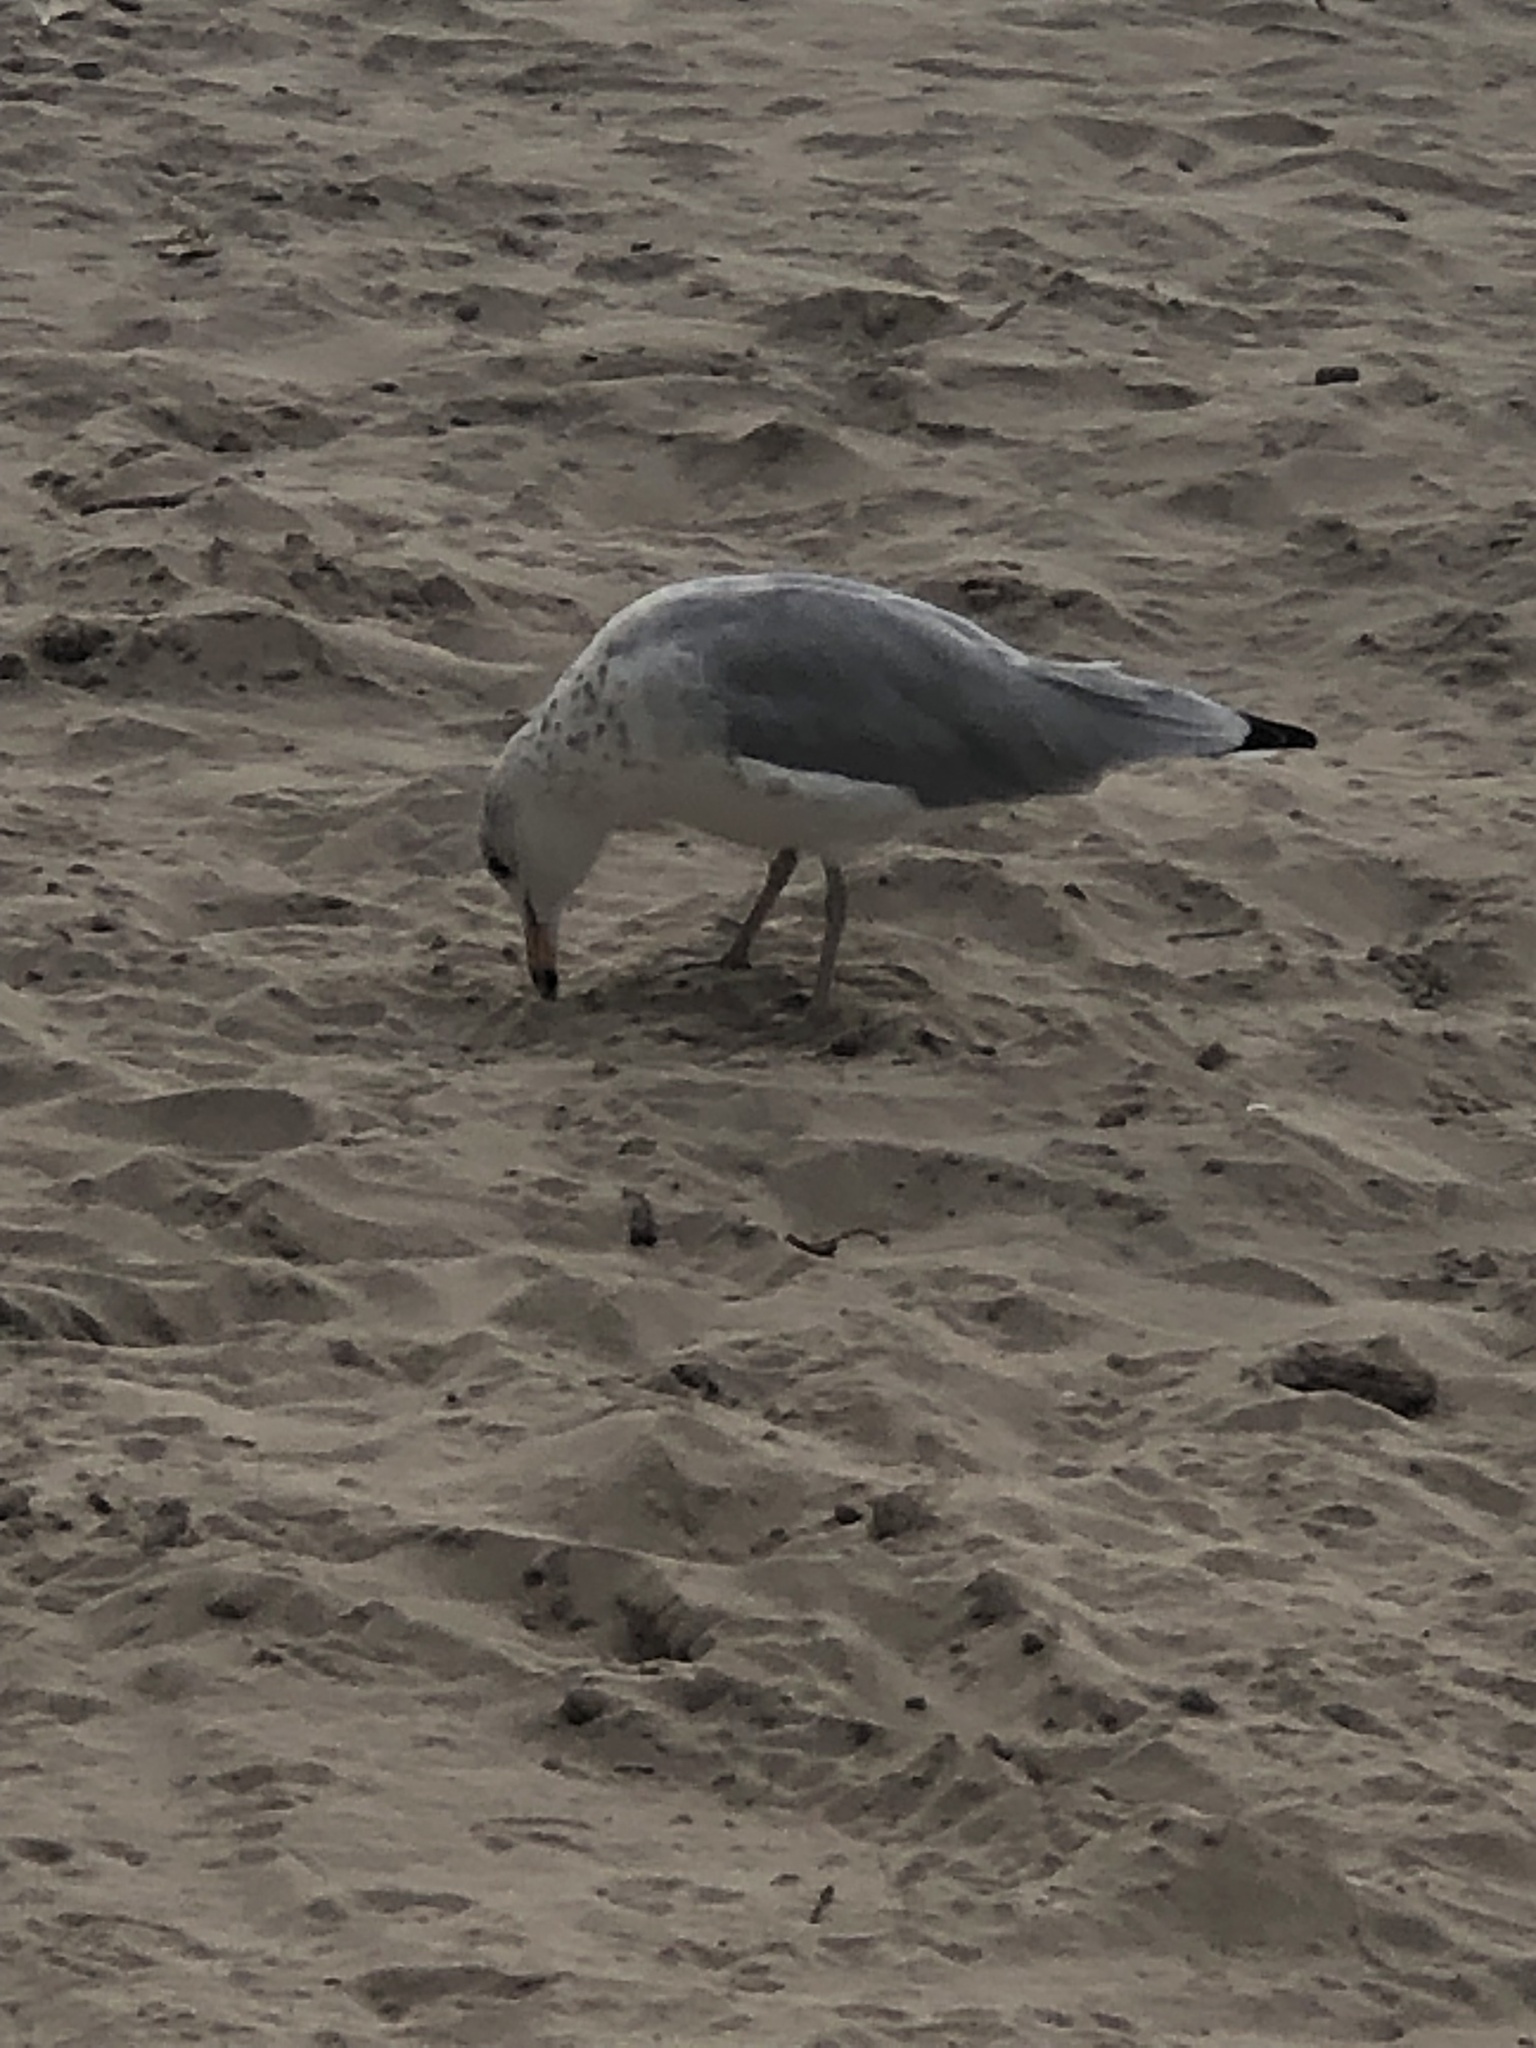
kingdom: Animalia
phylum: Chordata
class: Aves
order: Charadriiformes
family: Laridae
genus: Larus
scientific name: Larus delawarensis
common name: Ring-billed gull
